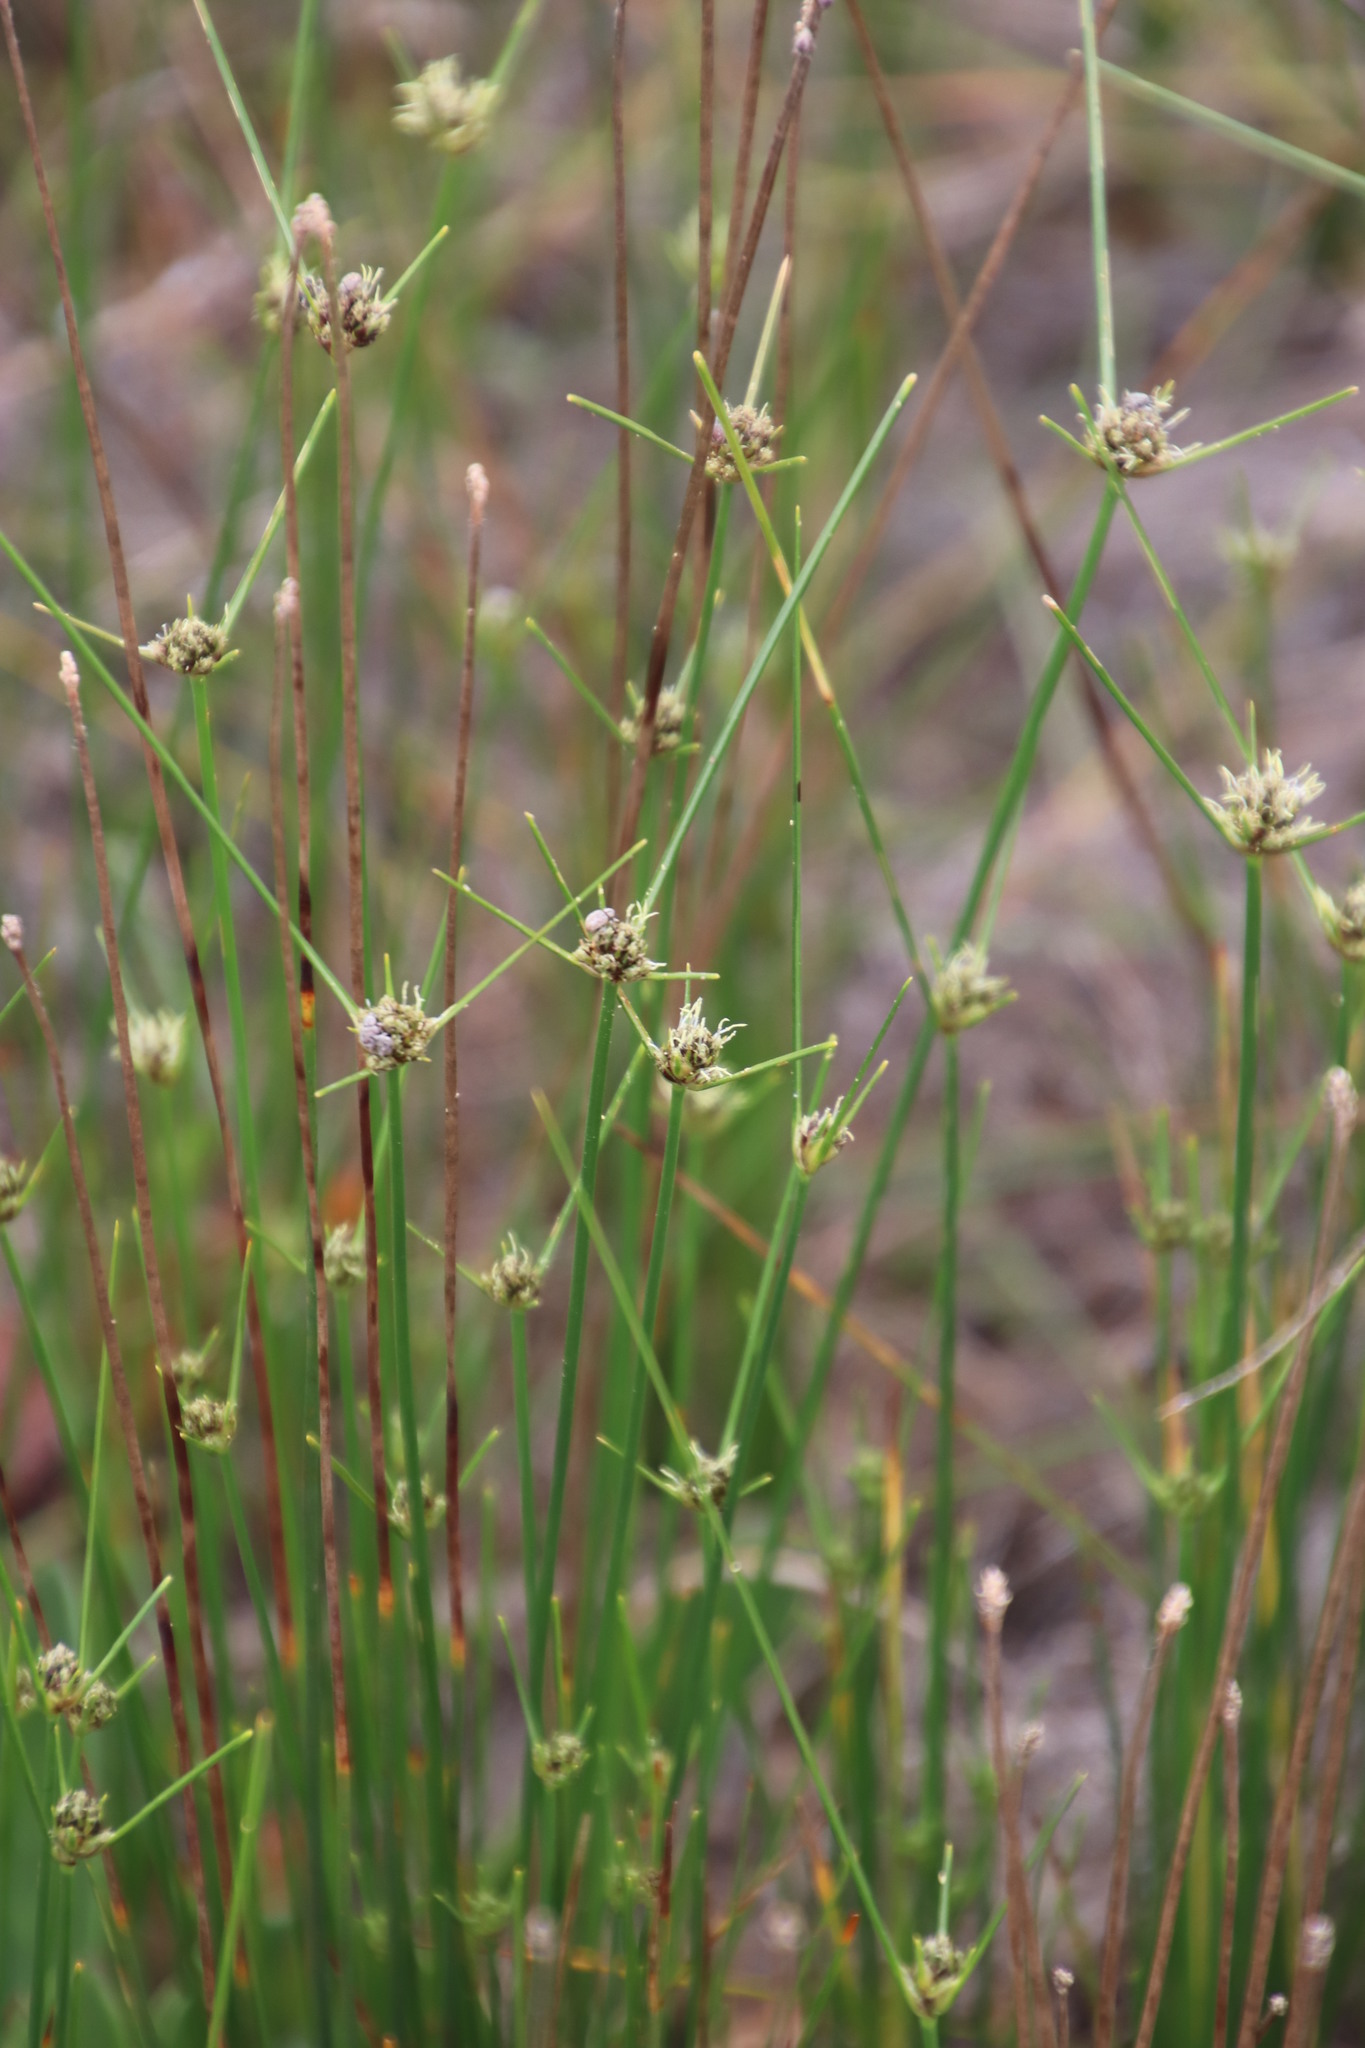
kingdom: Plantae
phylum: Tracheophyta
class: Liliopsida
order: Poales
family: Cyperaceae
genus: Ficinia
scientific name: Ficinia indica
